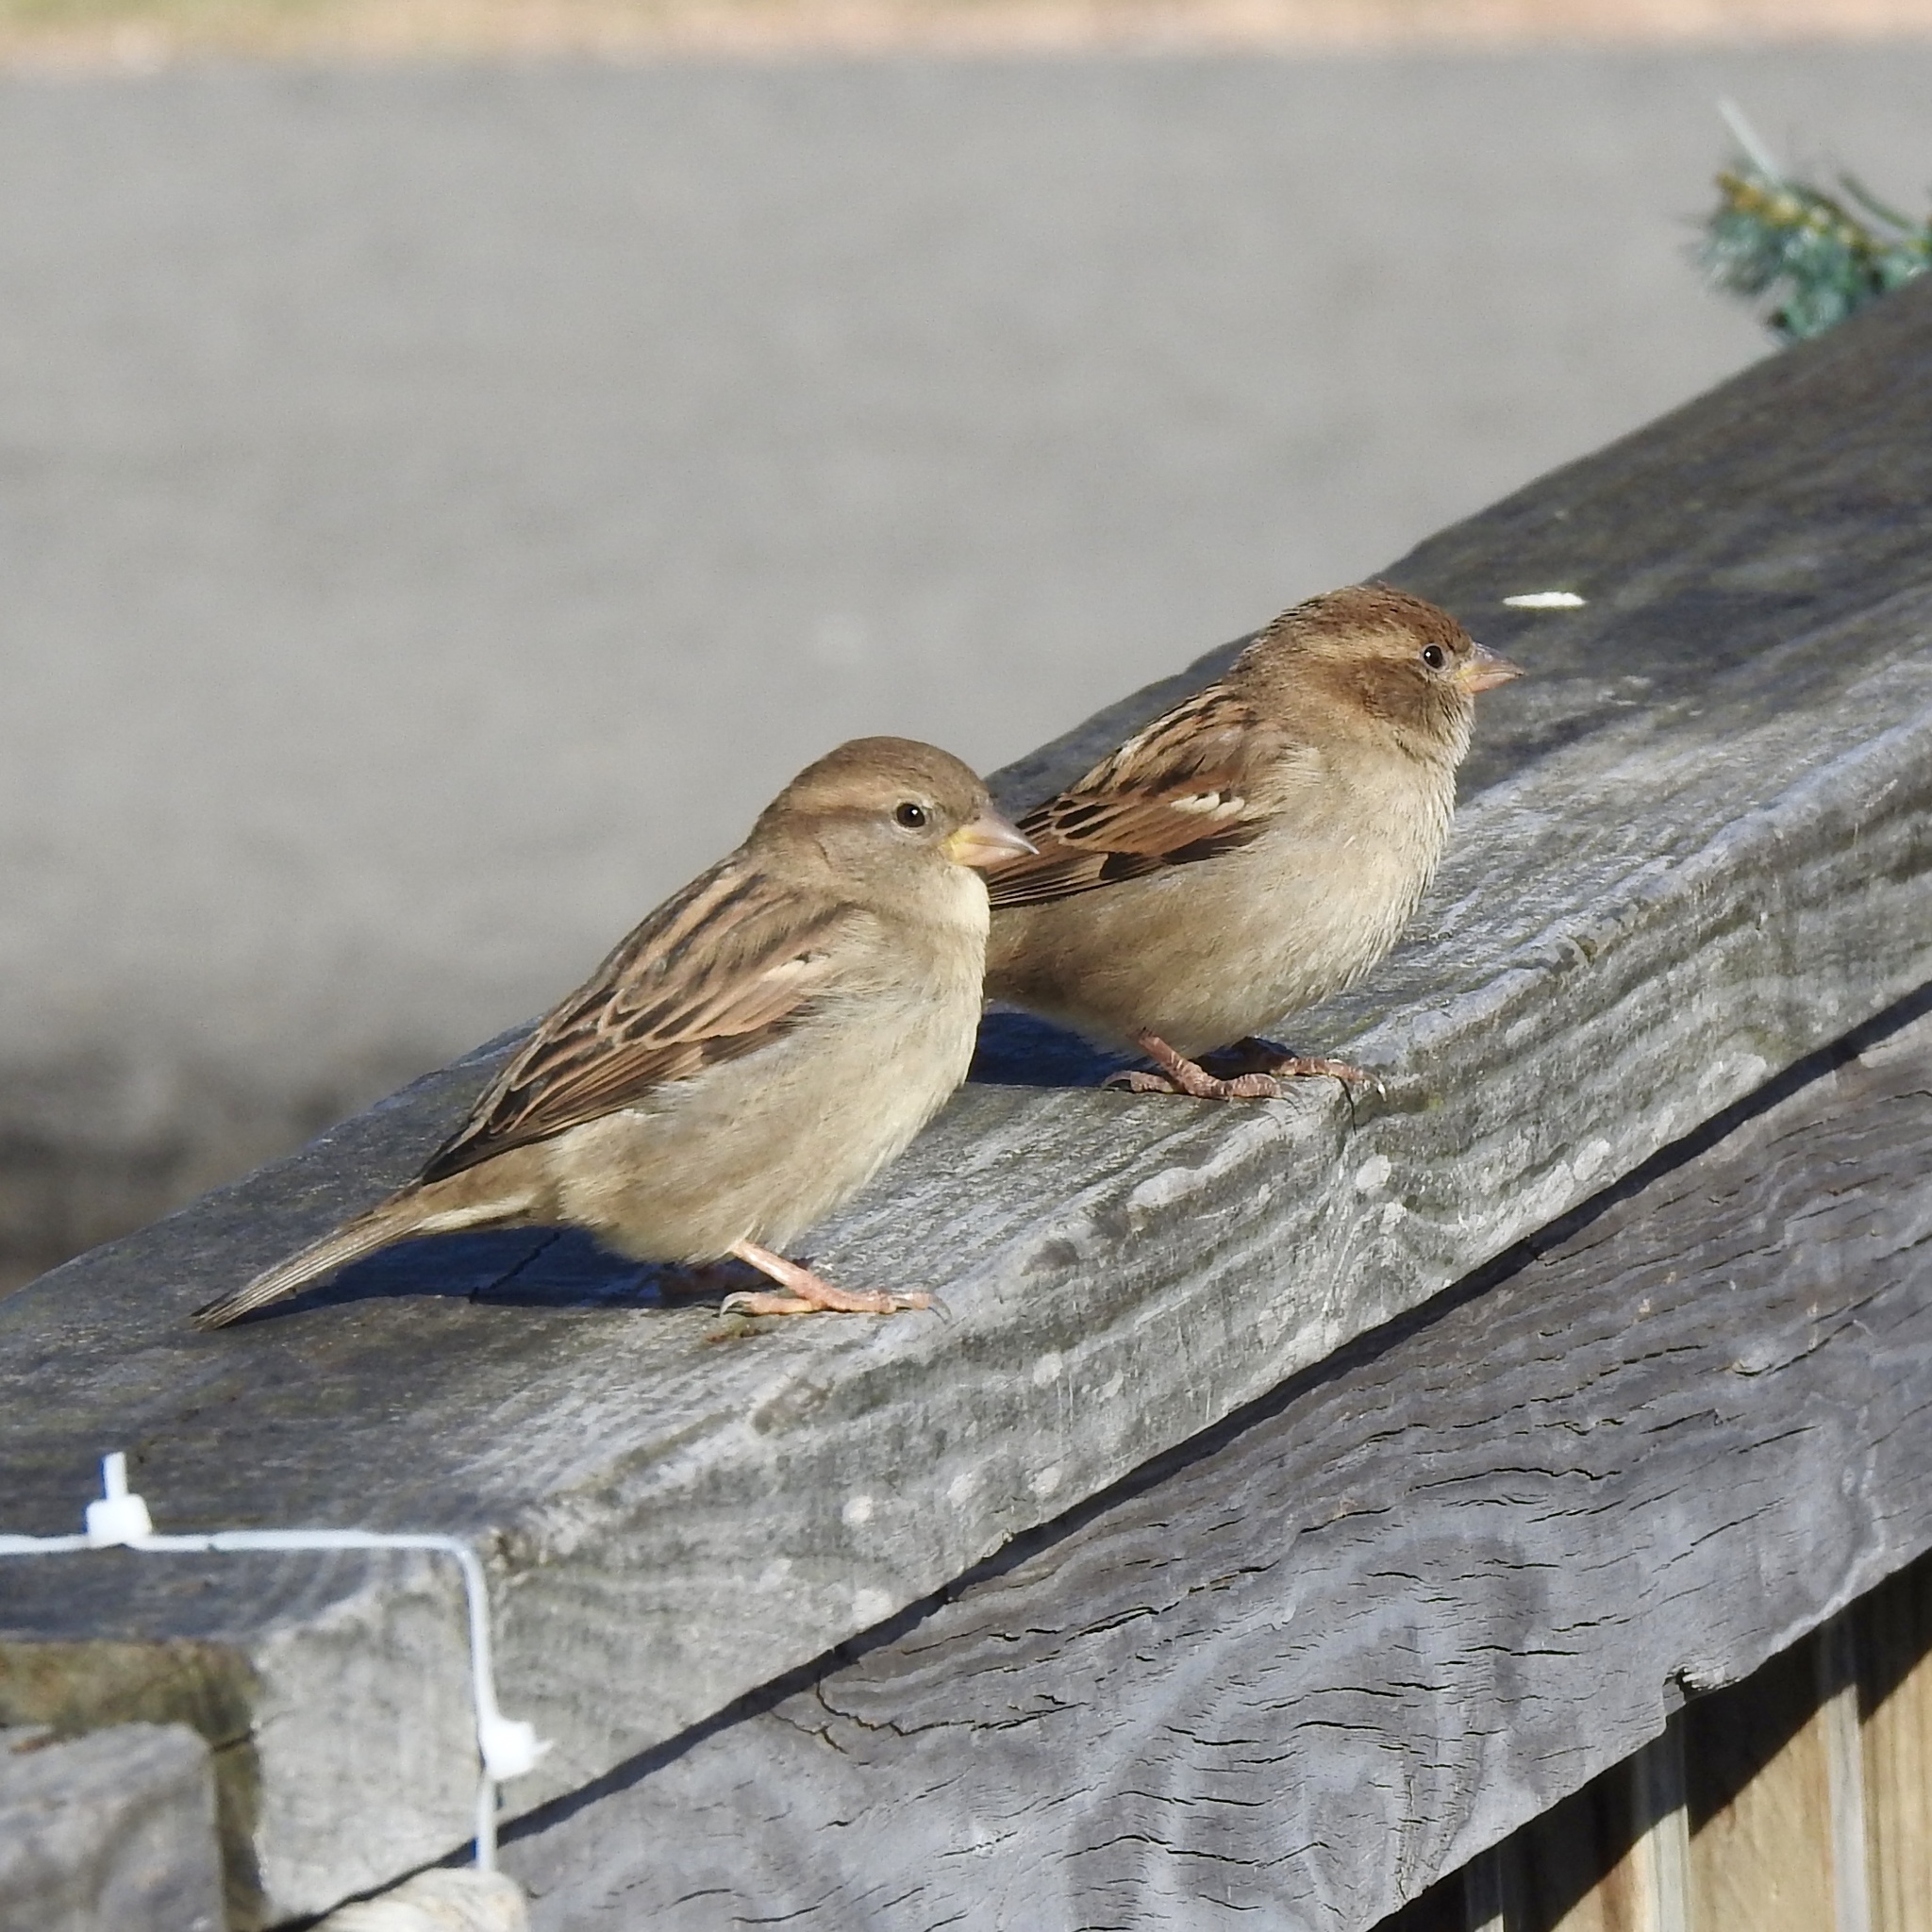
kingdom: Animalia
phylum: Chordata
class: Aves
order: Passeriformes
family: Passeridae
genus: Passer
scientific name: Passer domesticus
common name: House sparrow
